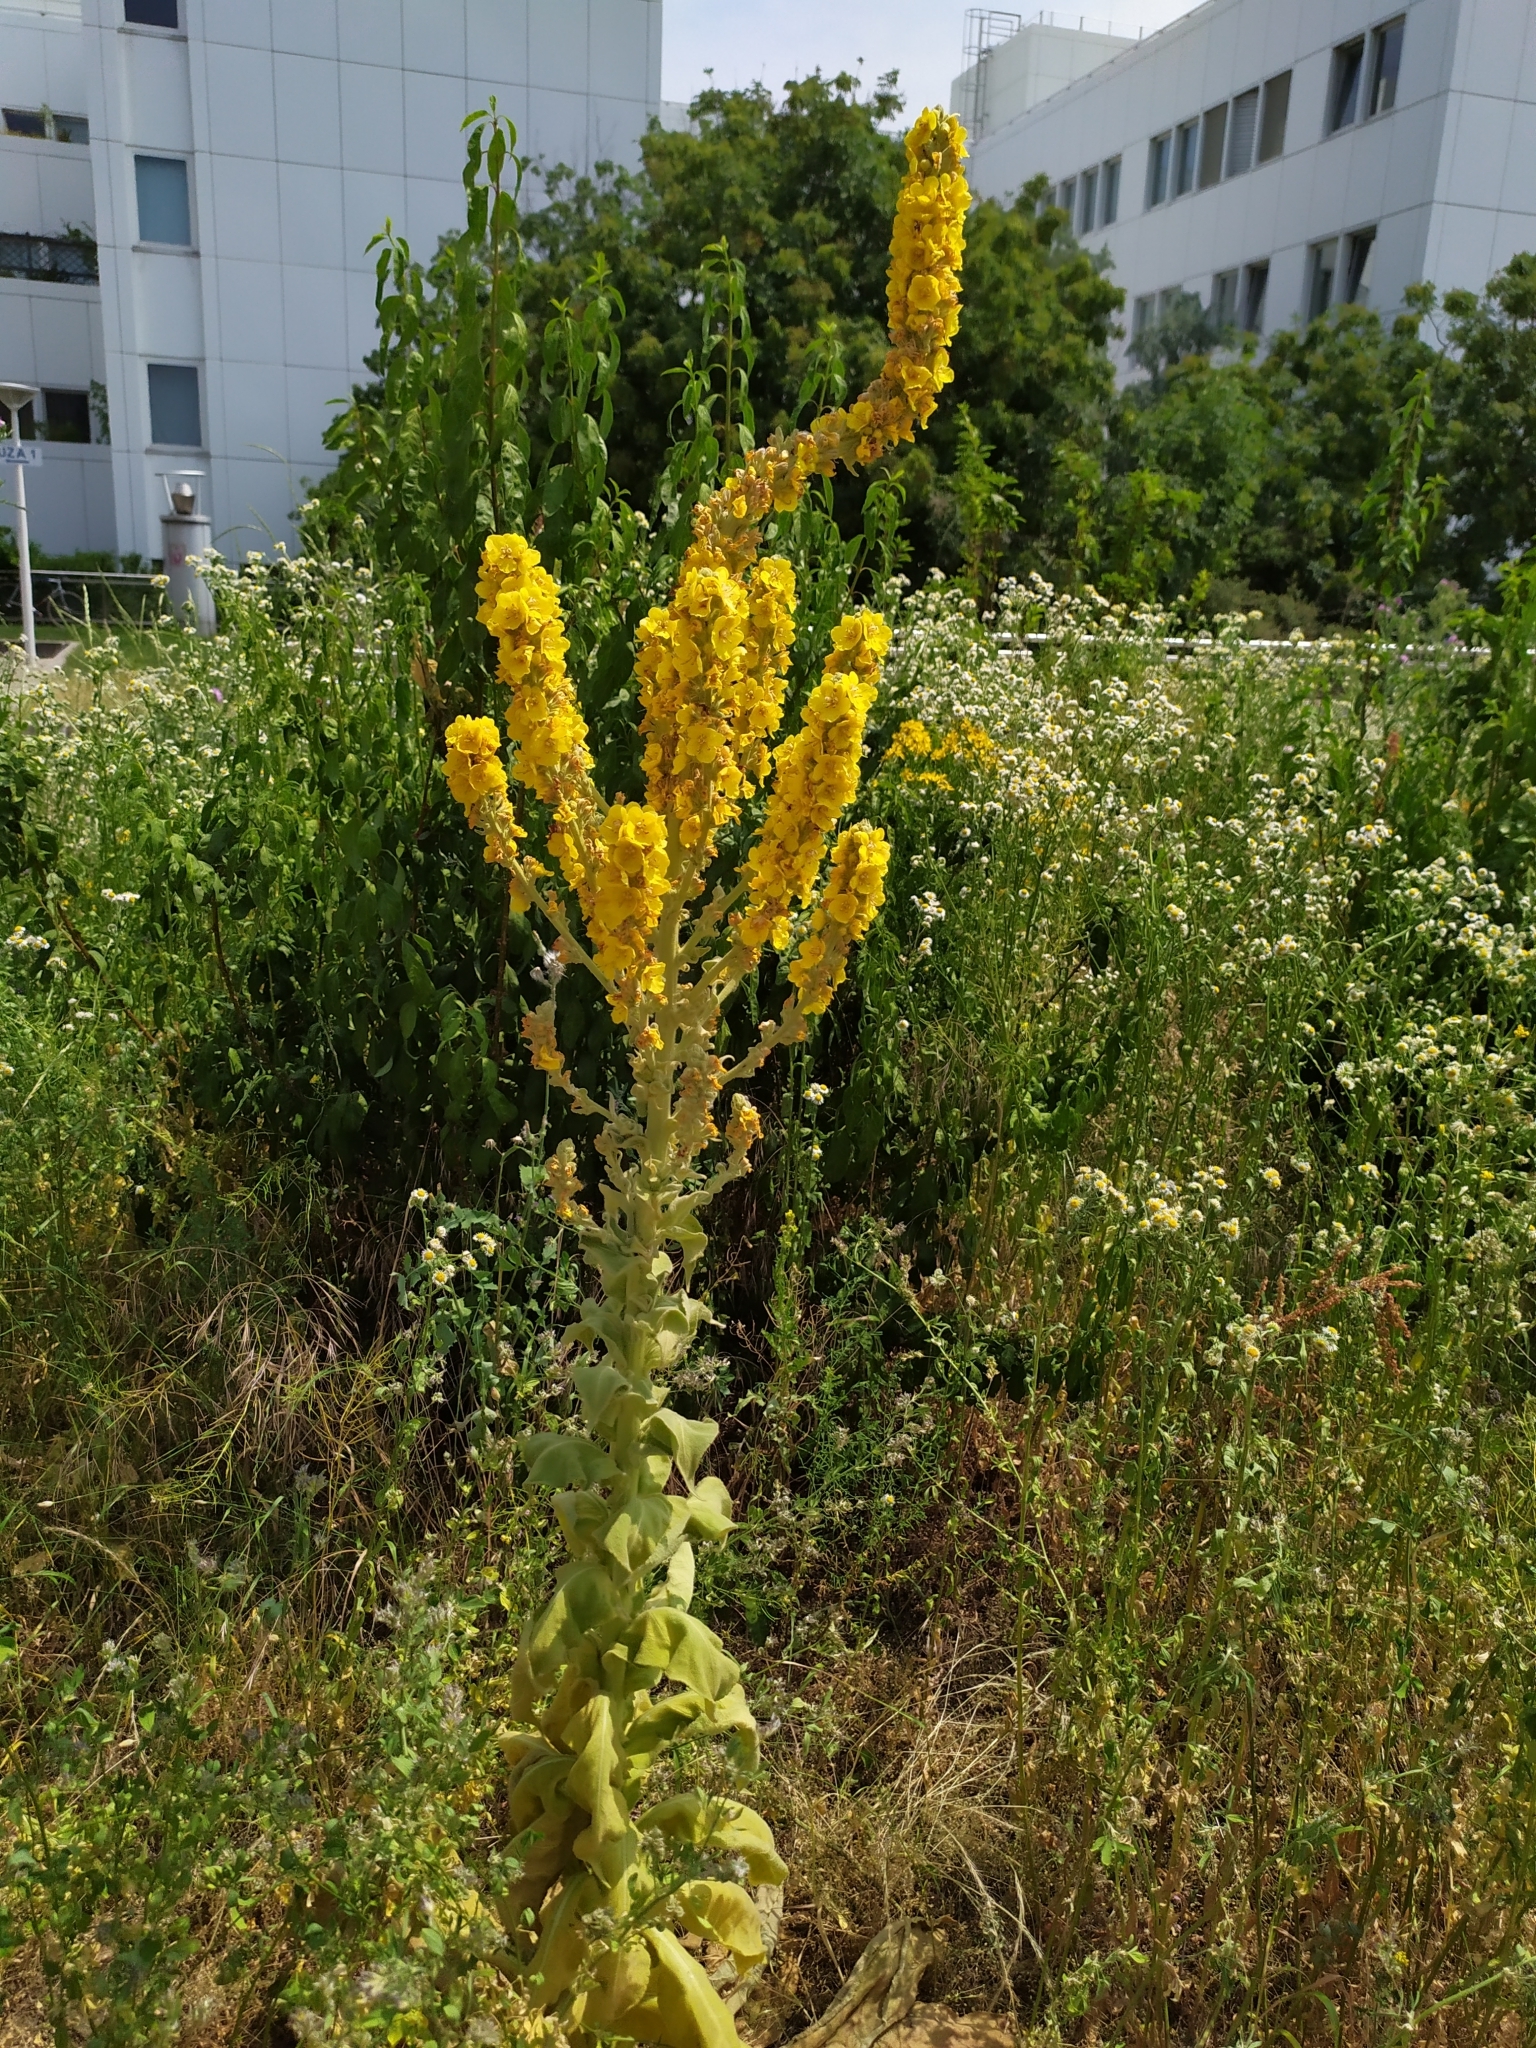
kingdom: Plantae
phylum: Tracheophyta
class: Magnoliopsida
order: Lamiales
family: Scrophulariaceae
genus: Verbascum
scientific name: Verbascum speciosum
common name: Hungarian mullein
